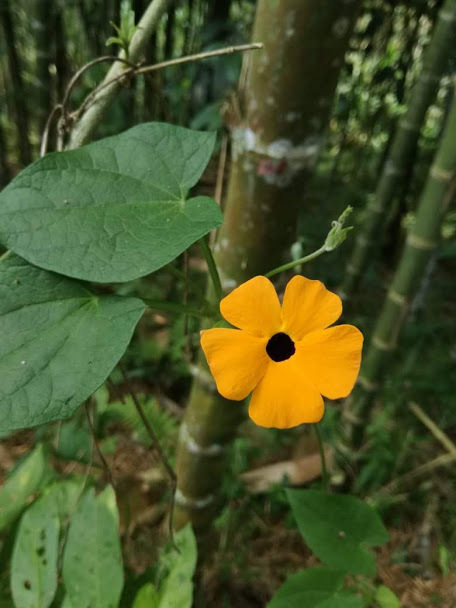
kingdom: Plantae
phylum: Tracheophyta
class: Magnoliopsida
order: Lamiales
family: Acanthaceae
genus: Thunbergia
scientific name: Thunbergia alata
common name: Blackeyed susan vine
